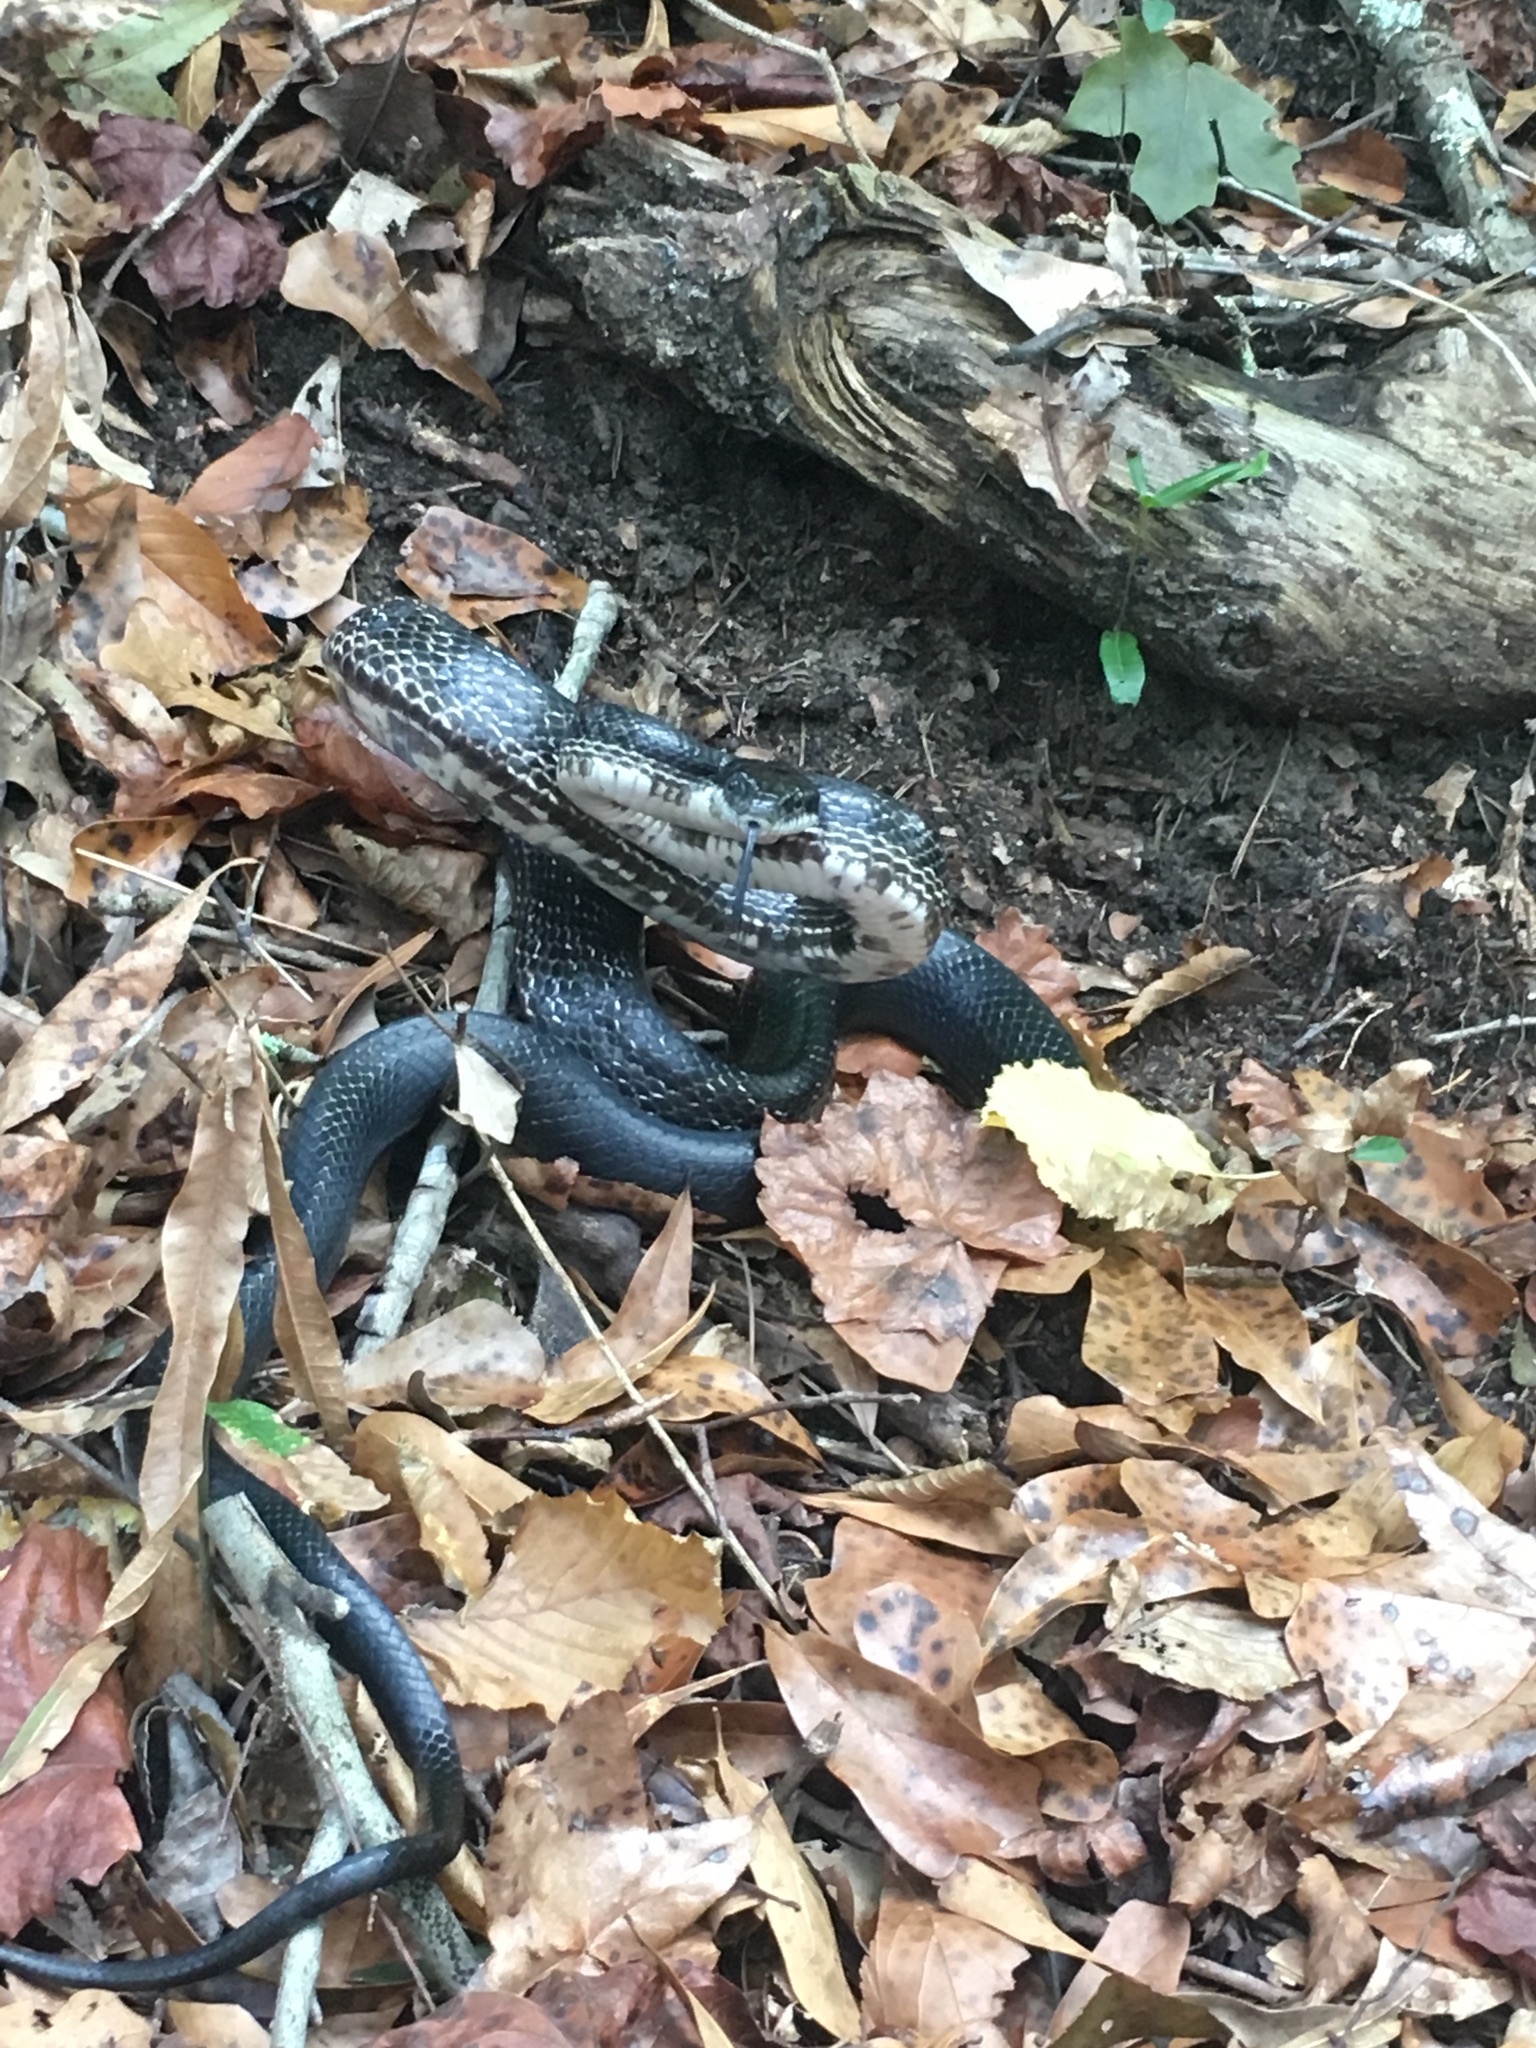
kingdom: Animalia
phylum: Chordata
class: Squamata
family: Colubridae
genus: Pantherophis
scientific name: Pantherophis alleghaniensis
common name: Eastern rat snake
